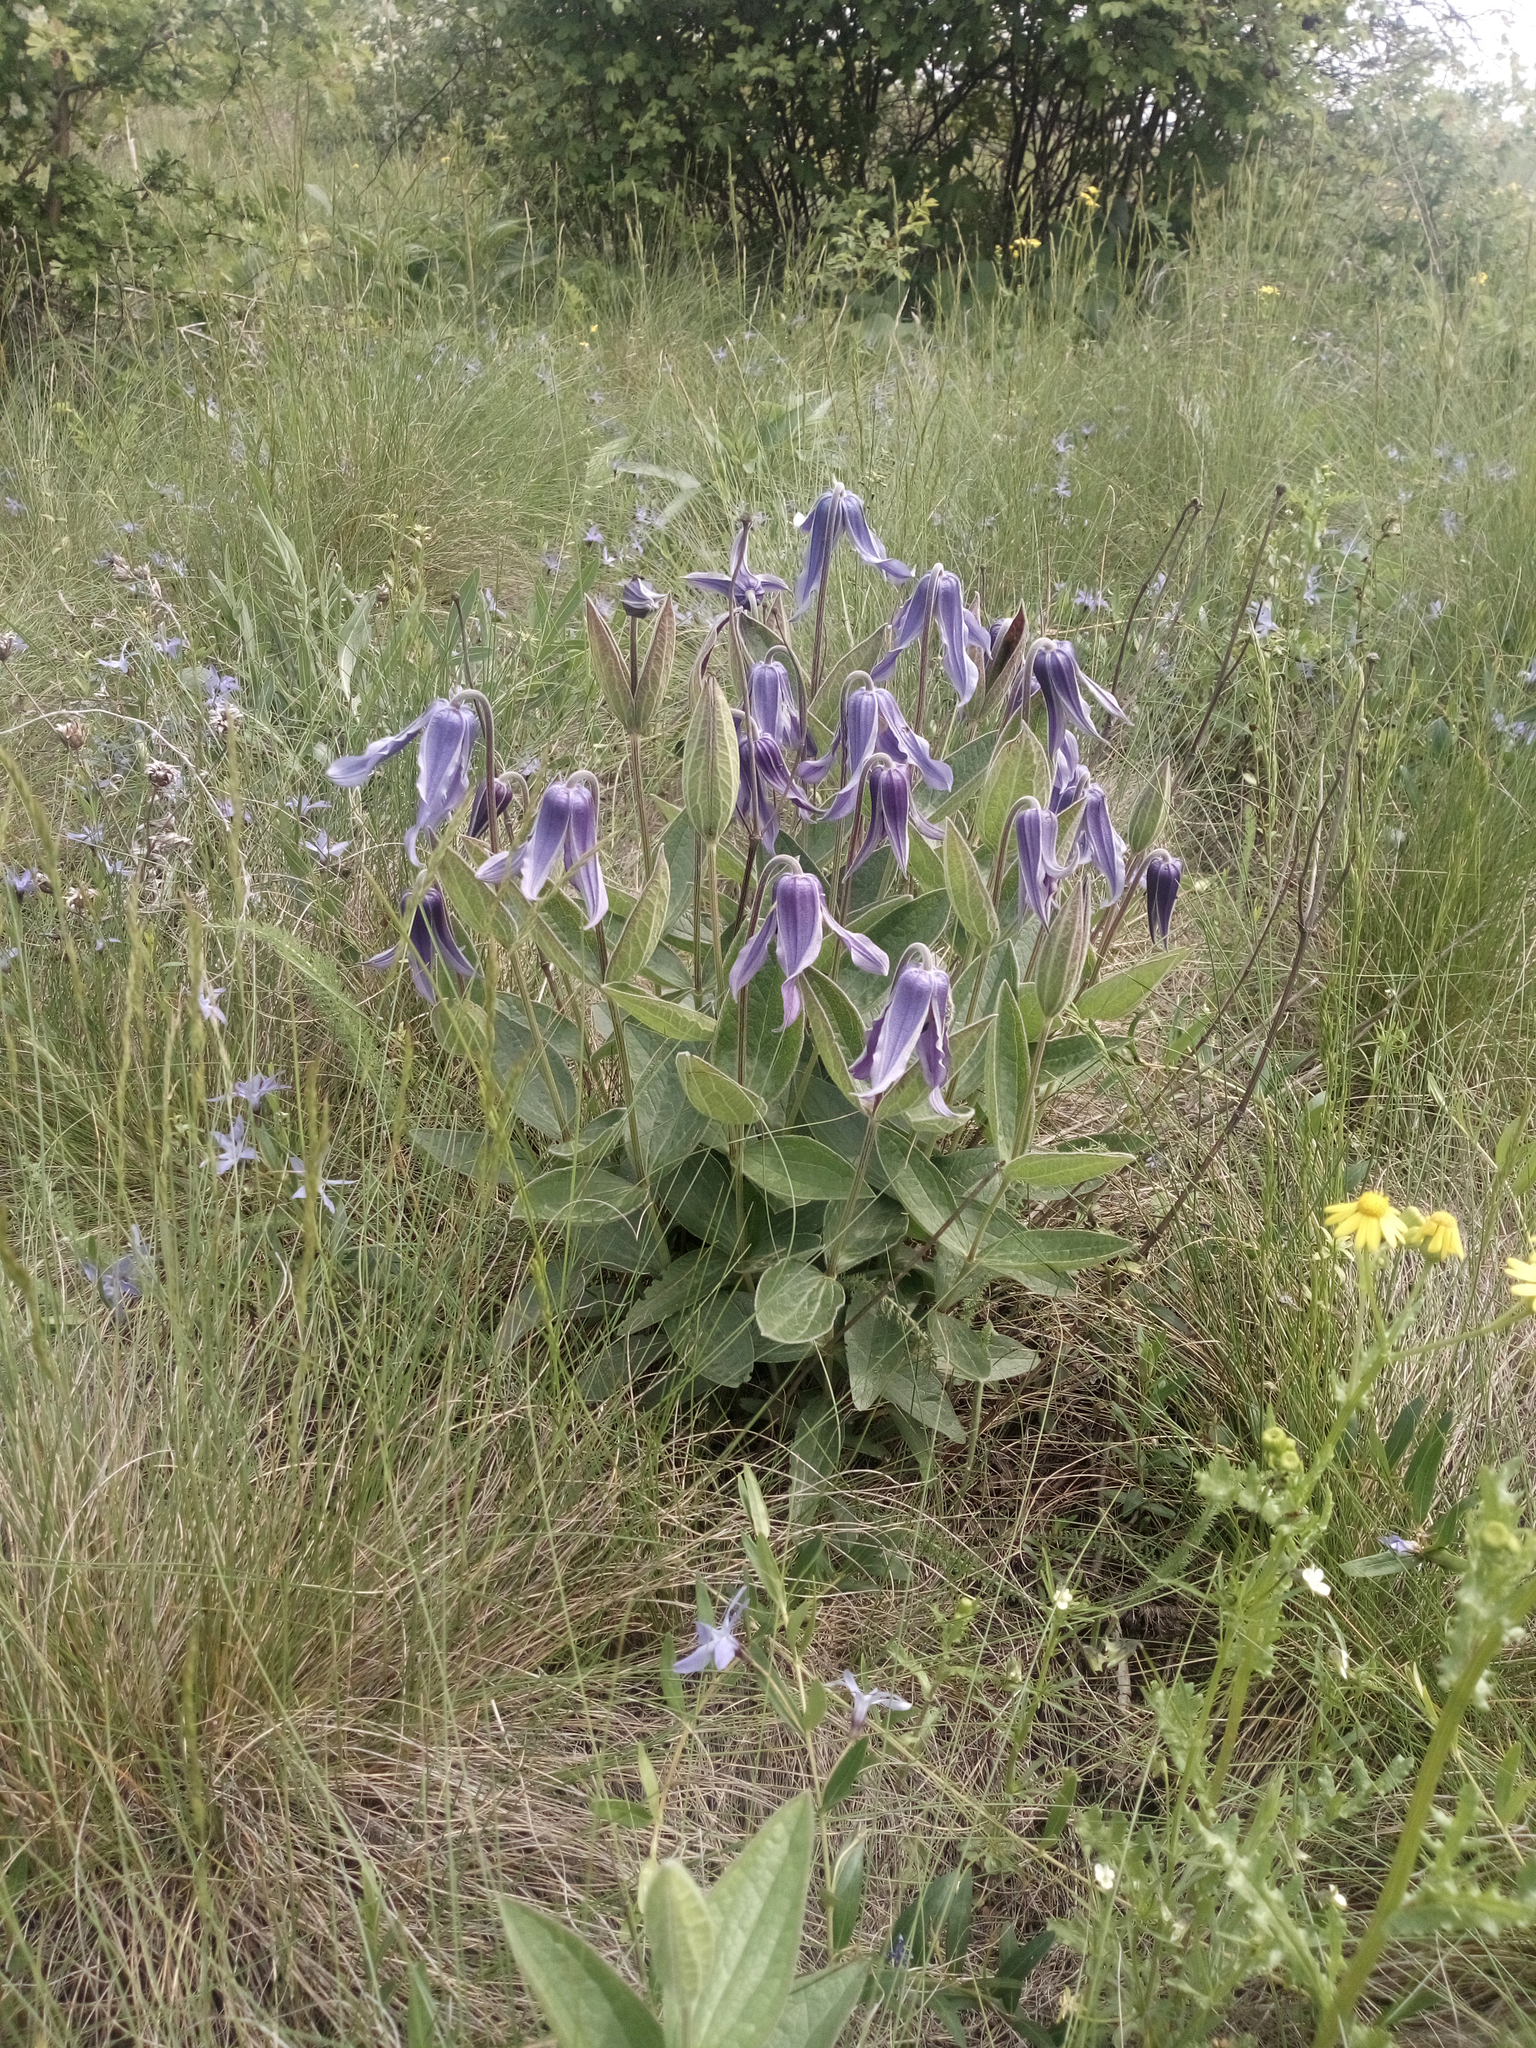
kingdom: Plantae
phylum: Tracheophyta
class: Magnoliopsida
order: Ranunculales
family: Ranunculaceae
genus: Clematis
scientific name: Clematis integrifolia
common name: Solitary clematis
